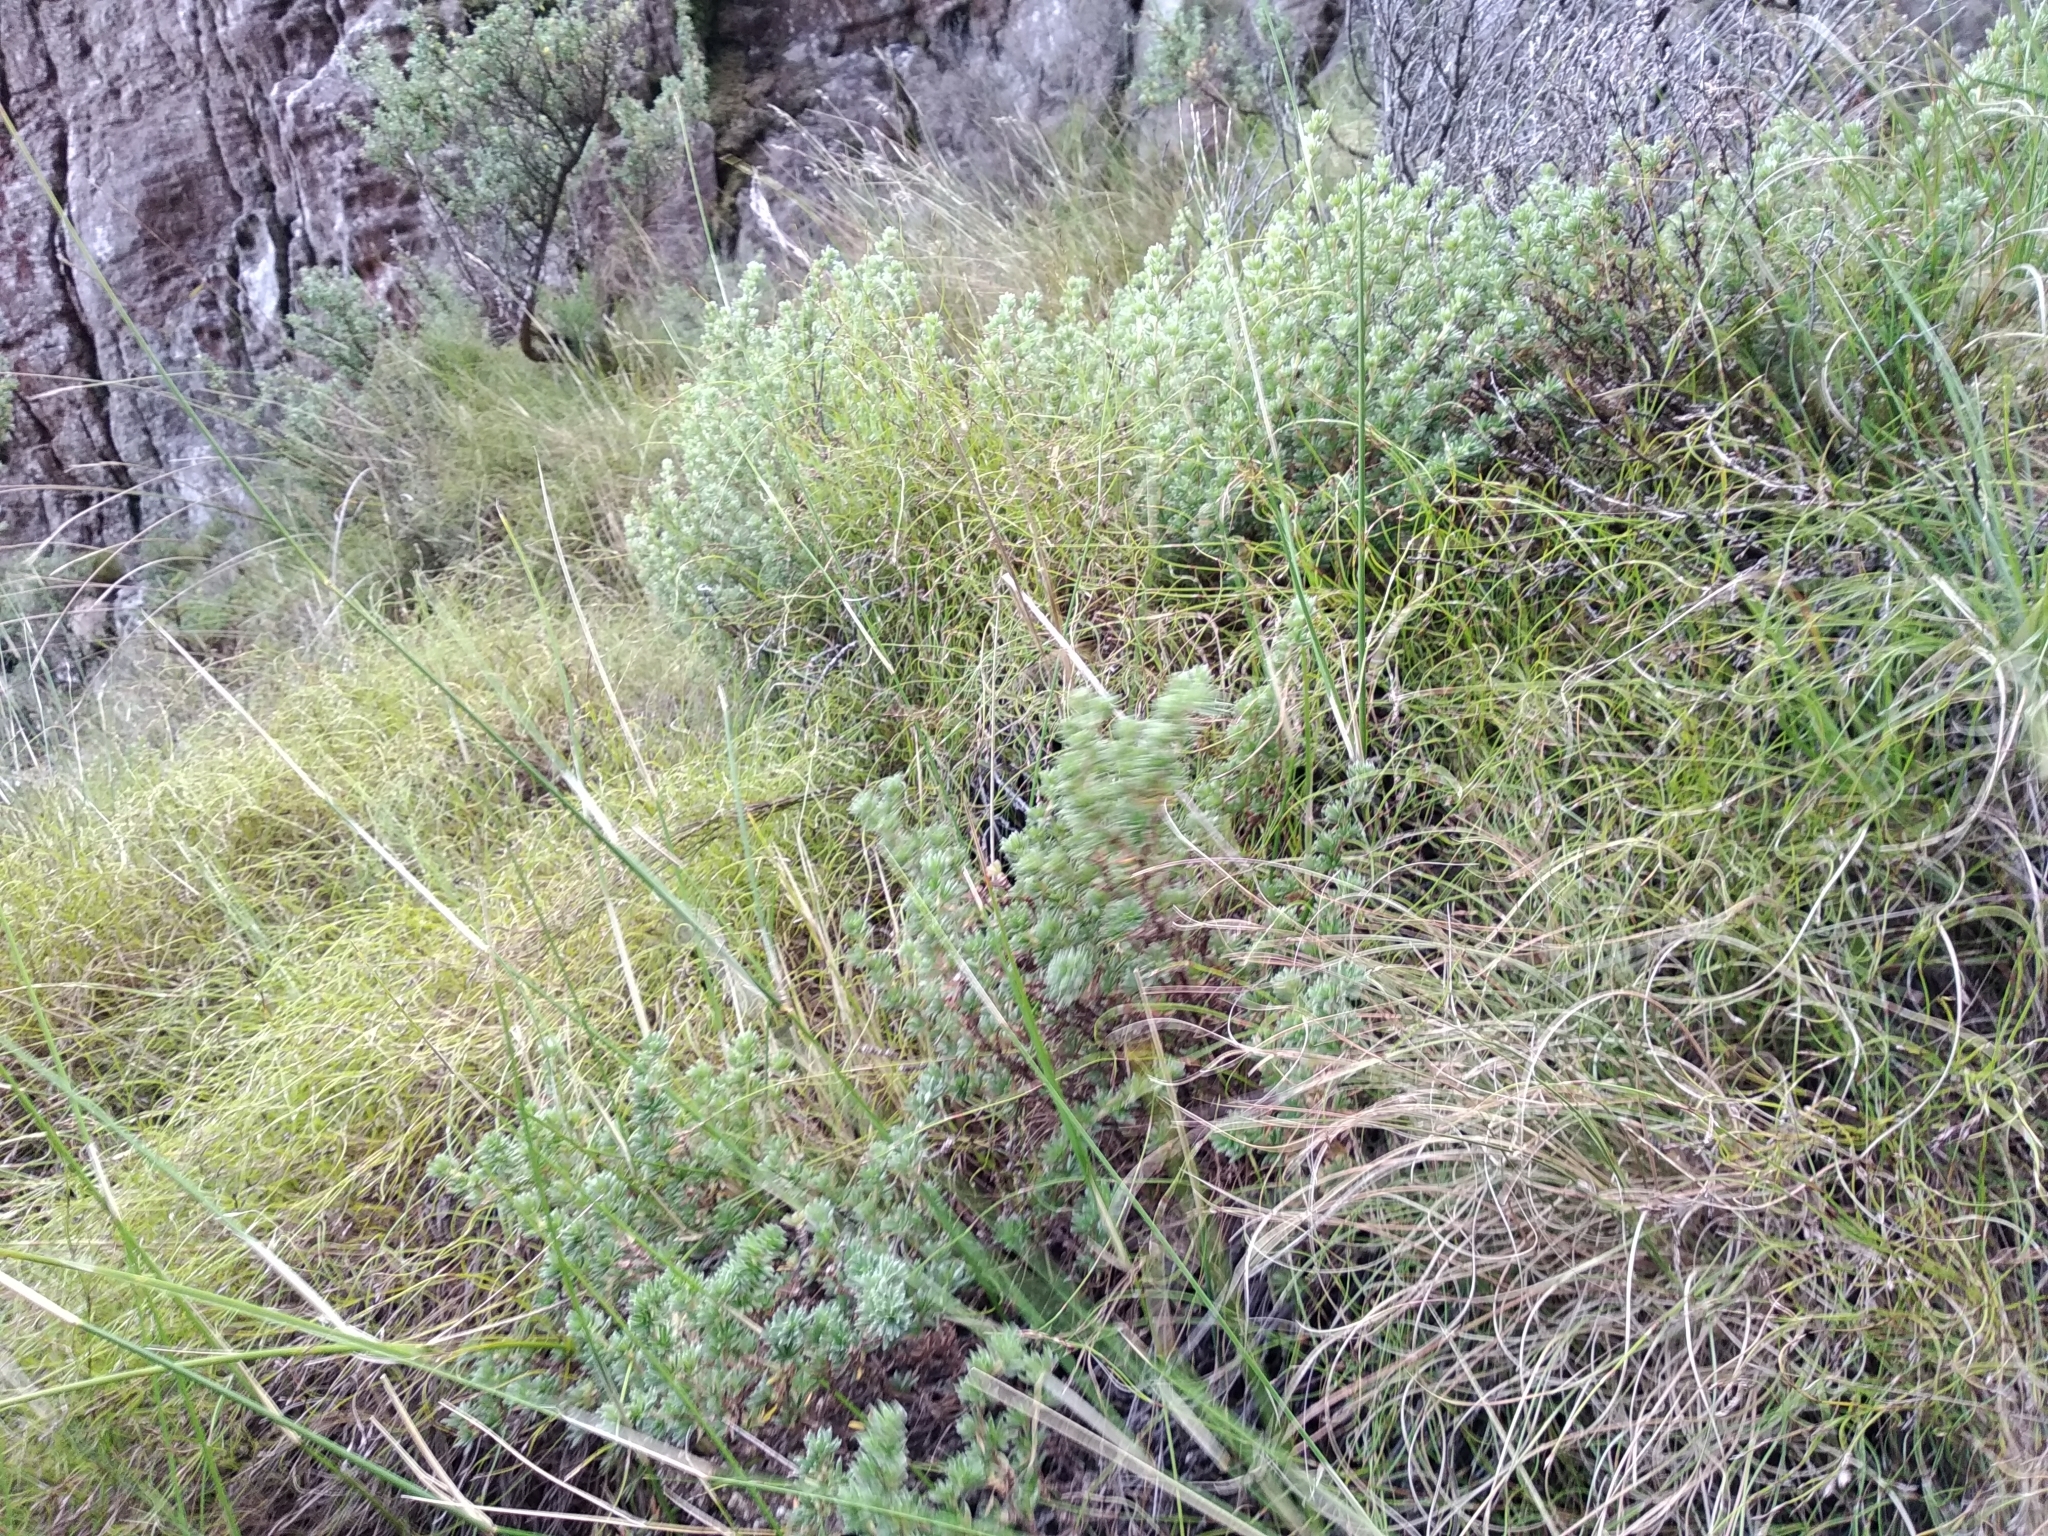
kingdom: Plantae
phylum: Tracheophyta
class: Magnoliopsida
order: Rosales
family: Rosaceae
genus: Cliffortia
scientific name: Cliffortia eriocephalina
